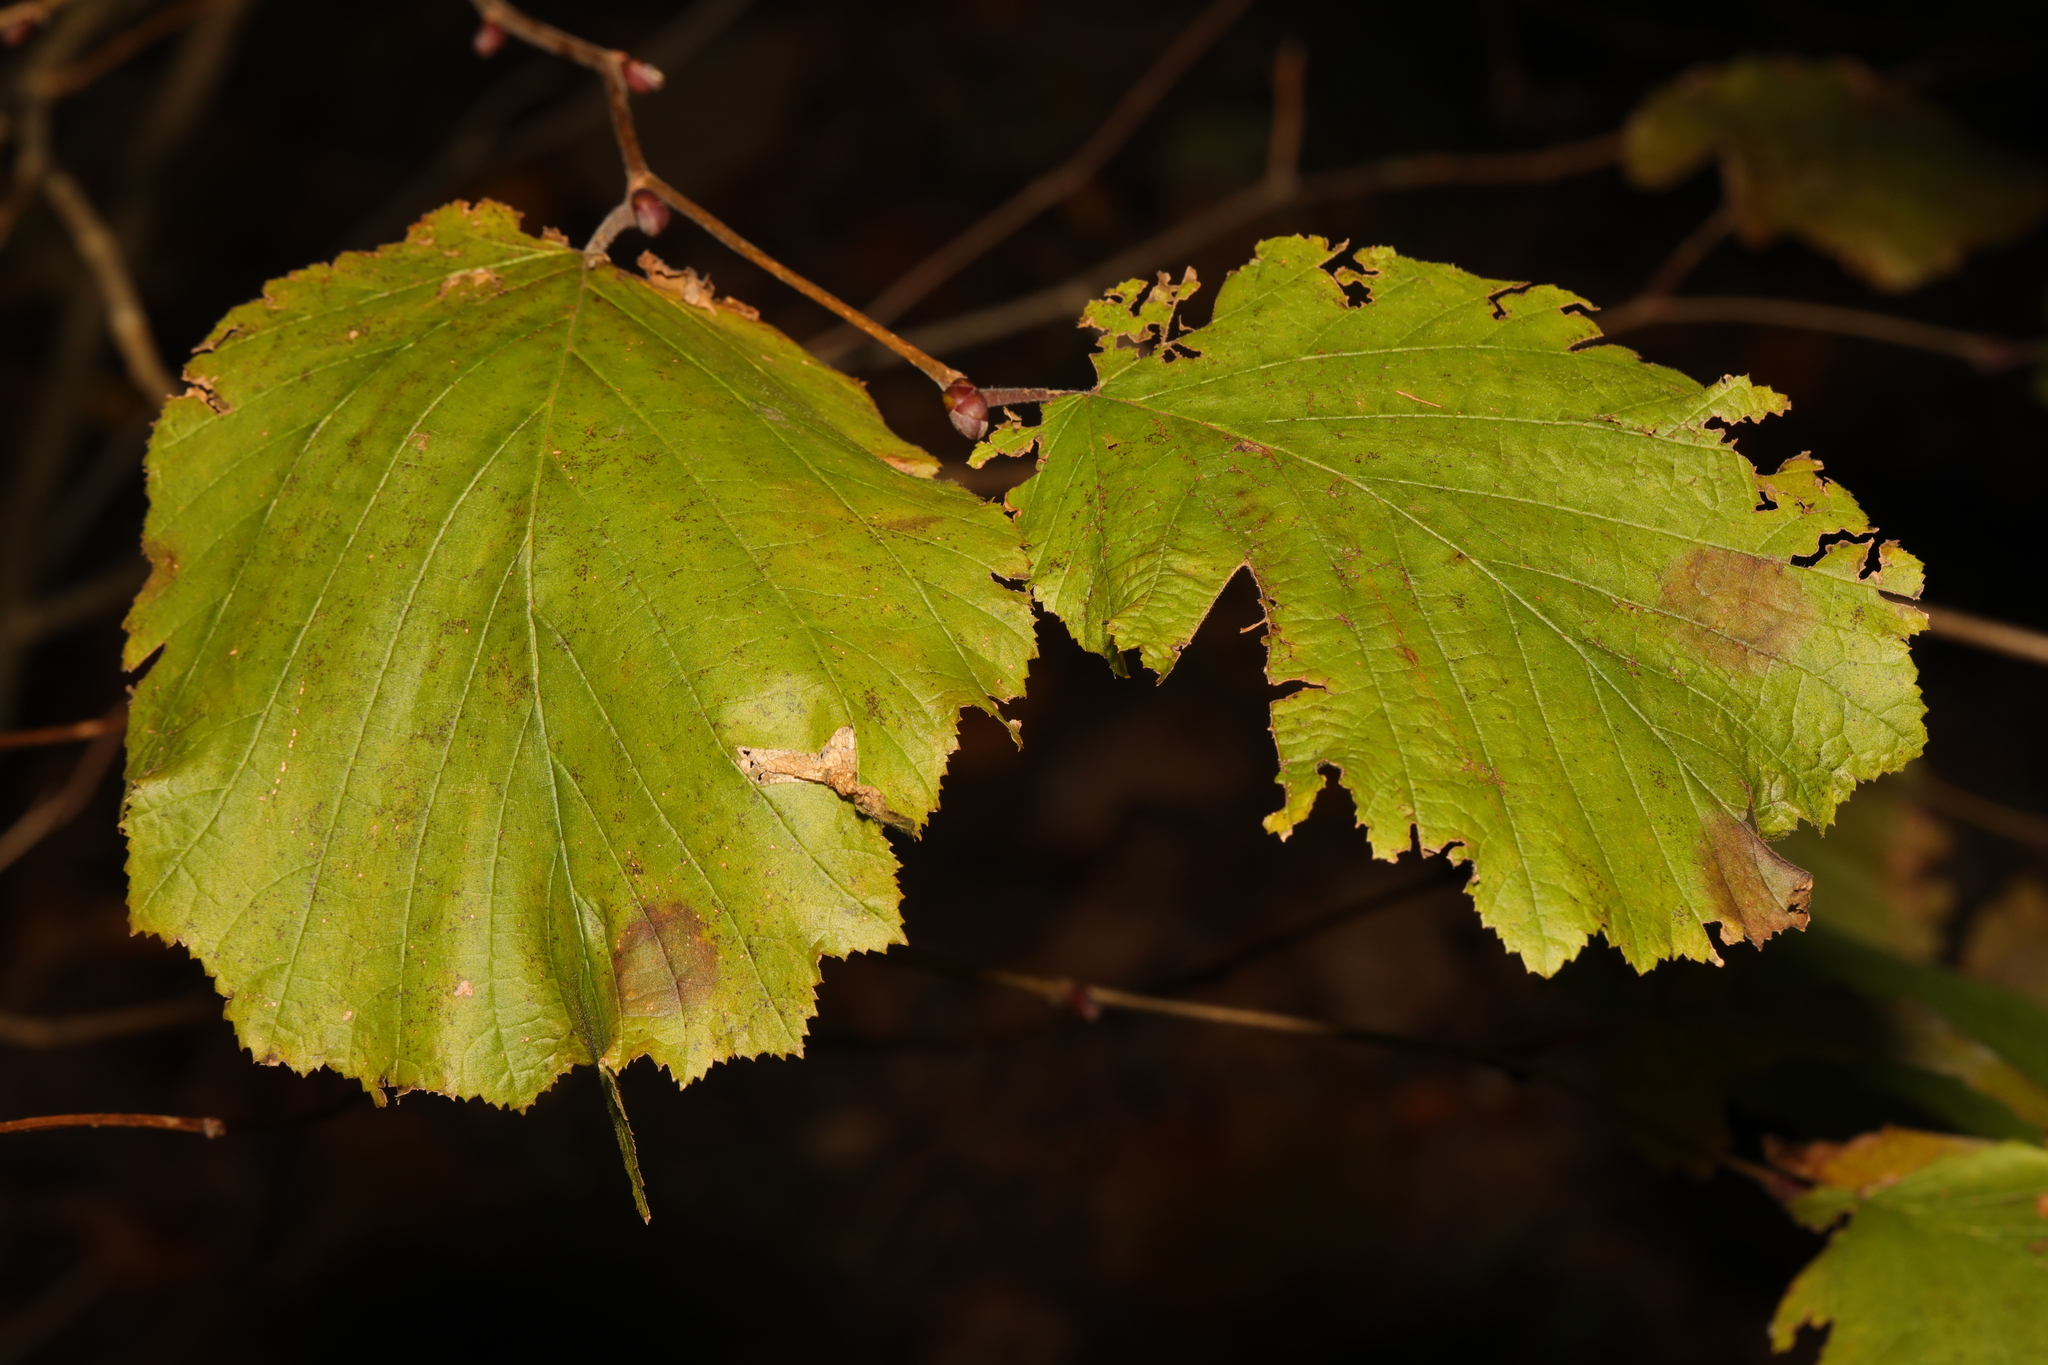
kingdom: Plantae
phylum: Tracheophyta
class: Magnoliopsida
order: Fagales
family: Betulaceae
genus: Corylus
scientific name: Corylus avellana
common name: European hazel
